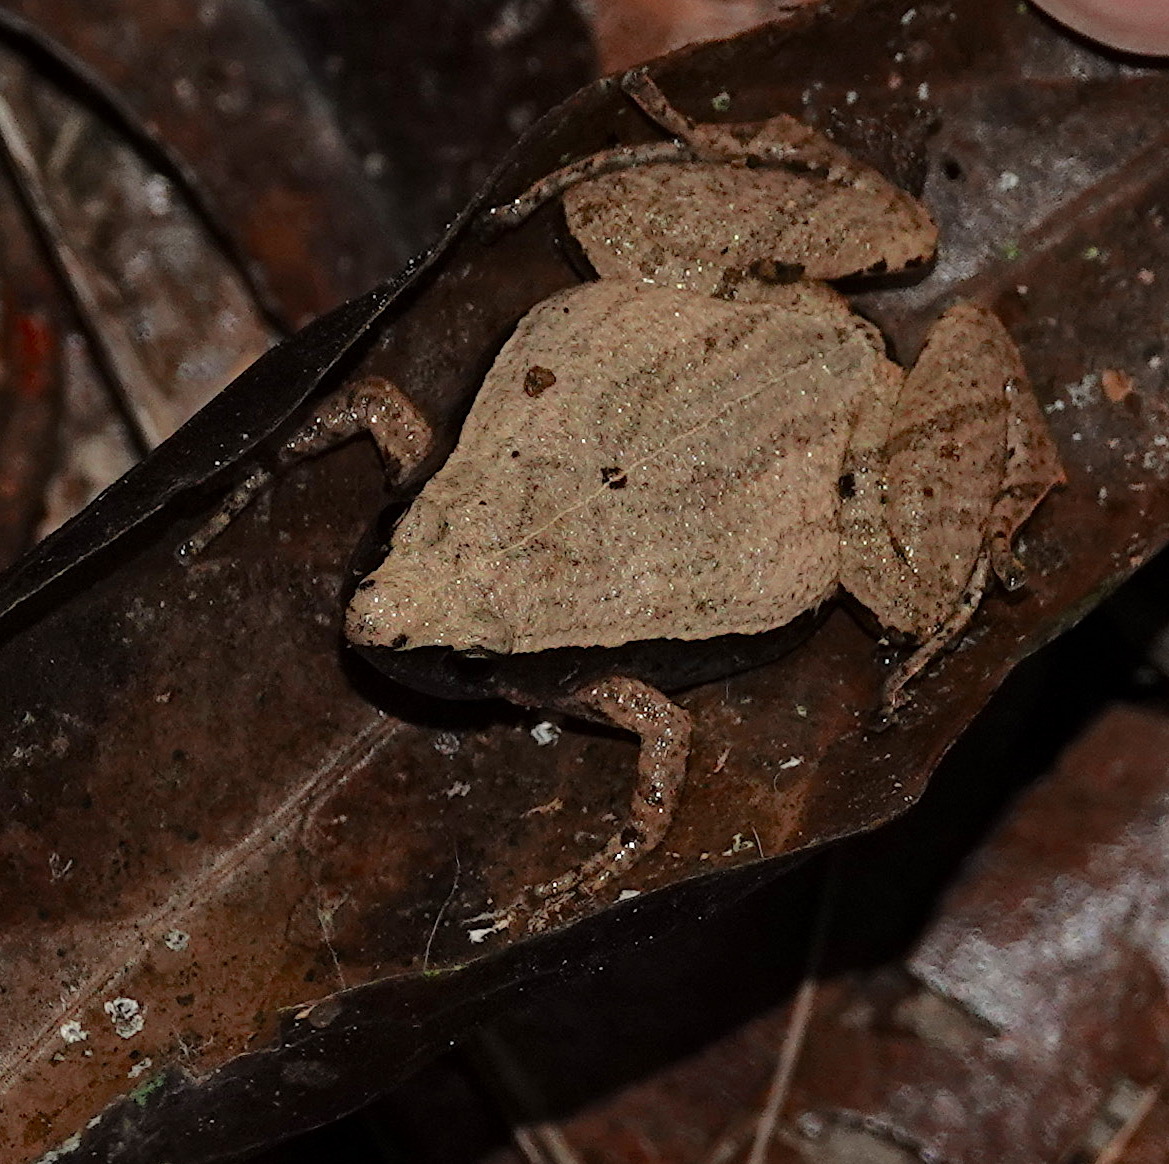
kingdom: Animalia
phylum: Chordata
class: Amphibia
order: Anura
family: Microhylidae
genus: Microhyla
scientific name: Microhyla heymonsi
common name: Taiwan rice frog,dark sided chorus frog
